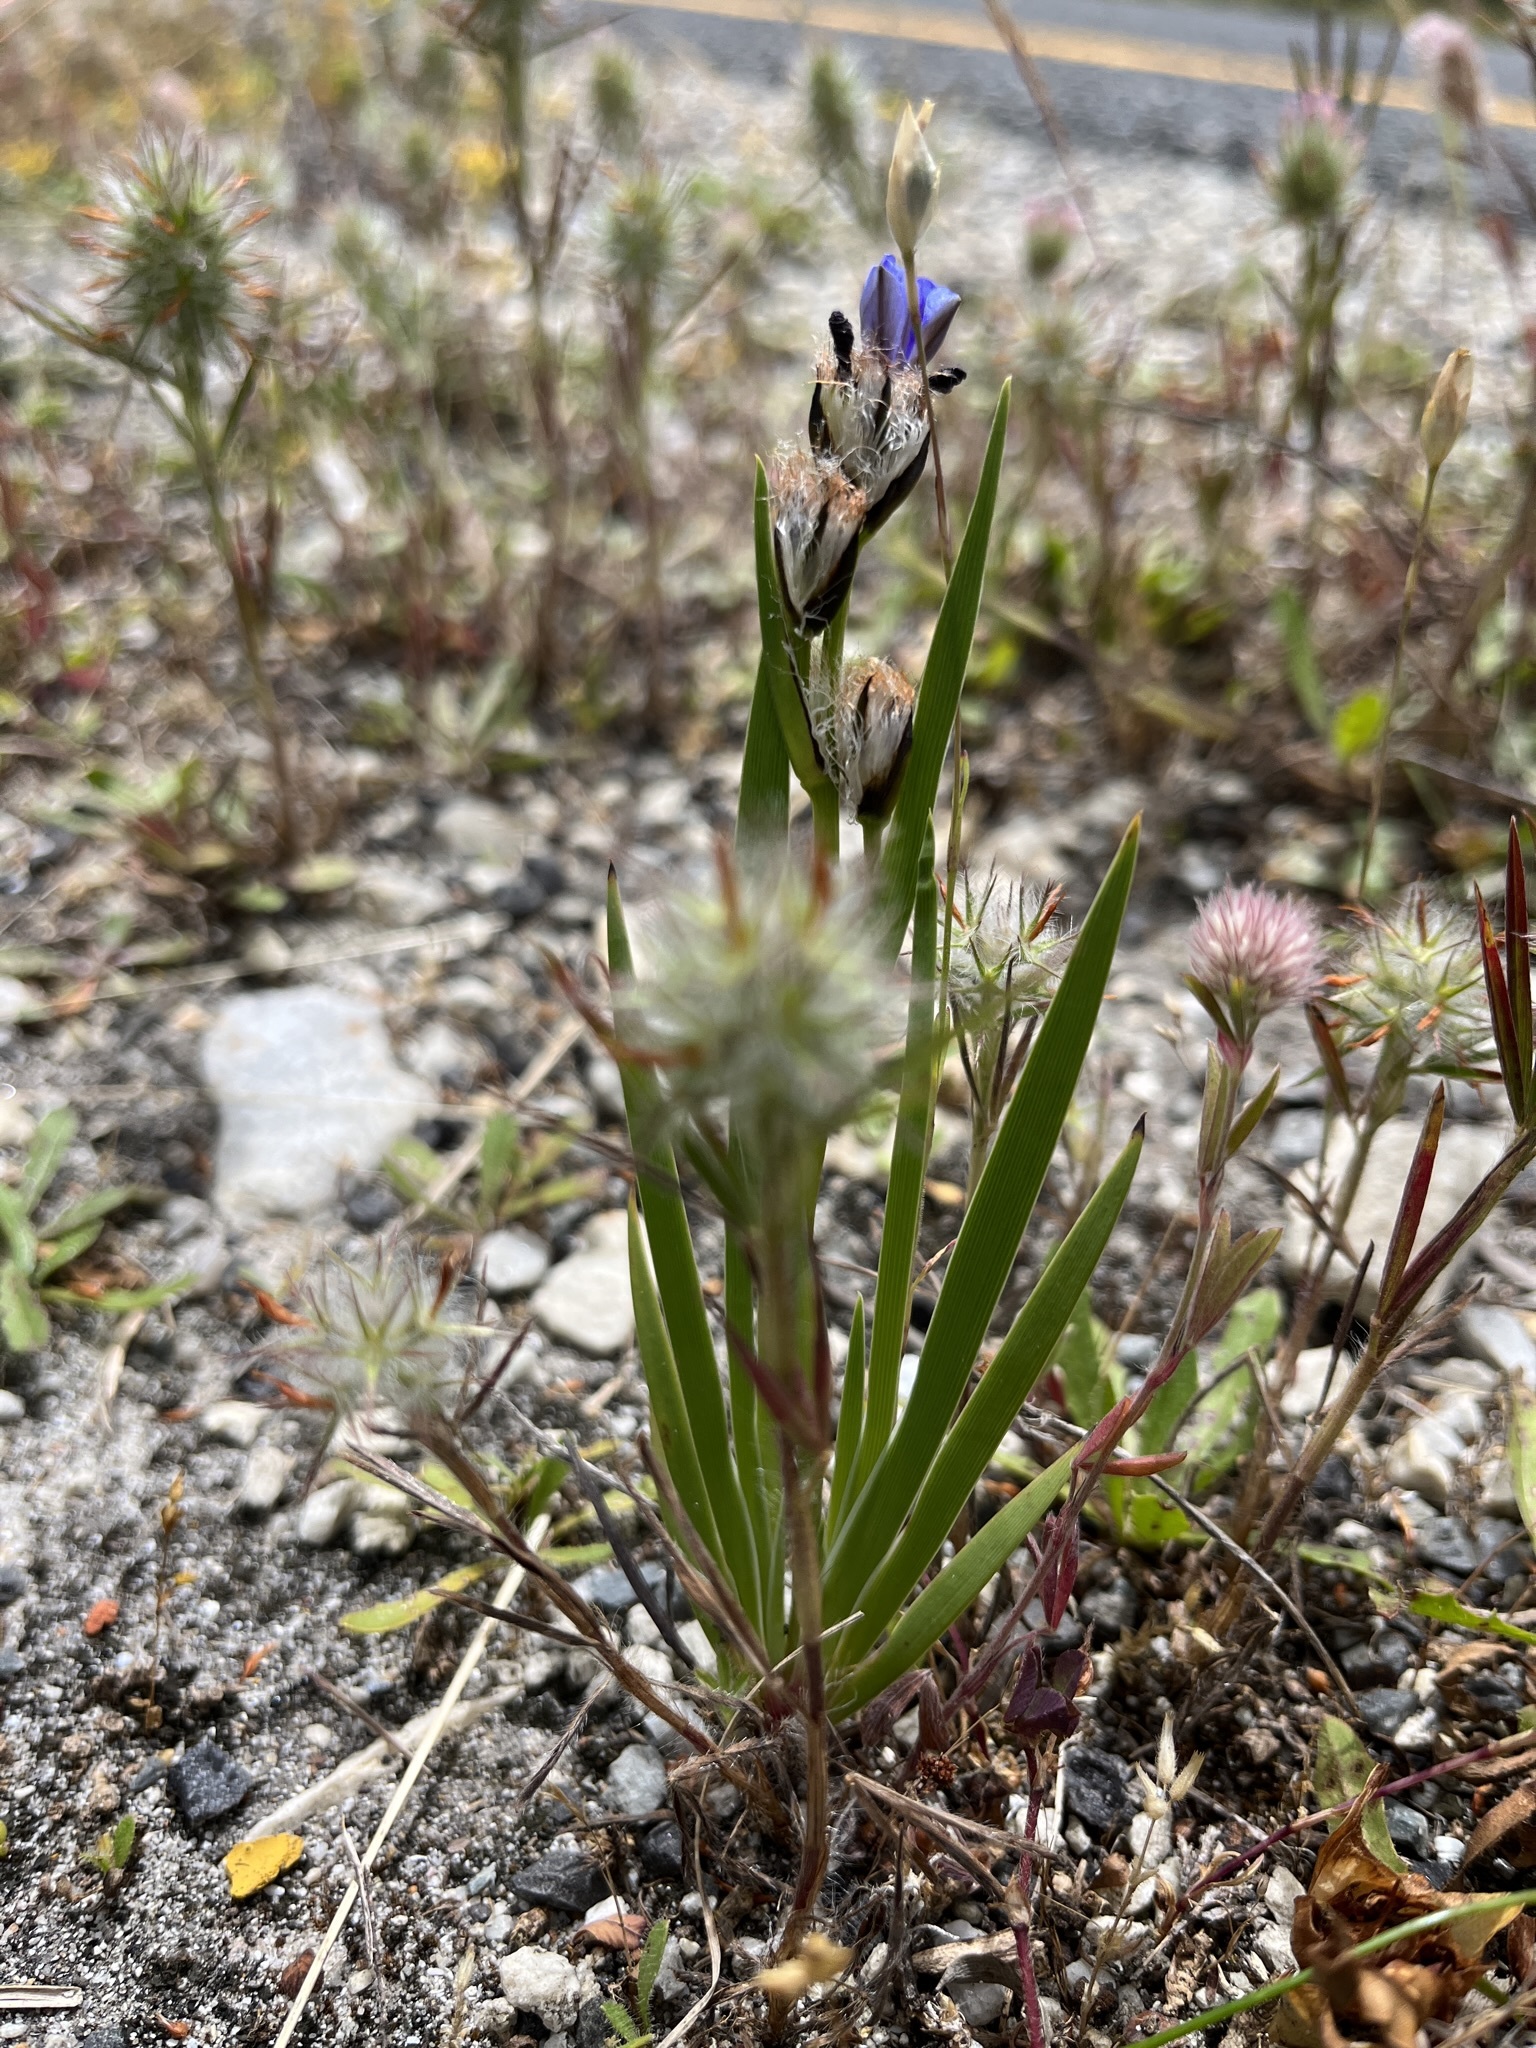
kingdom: Plantae
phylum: Tracheophyta
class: Liliopsida
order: Asparagales
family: Iridaceae
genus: Aristea
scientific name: Aristea africana
